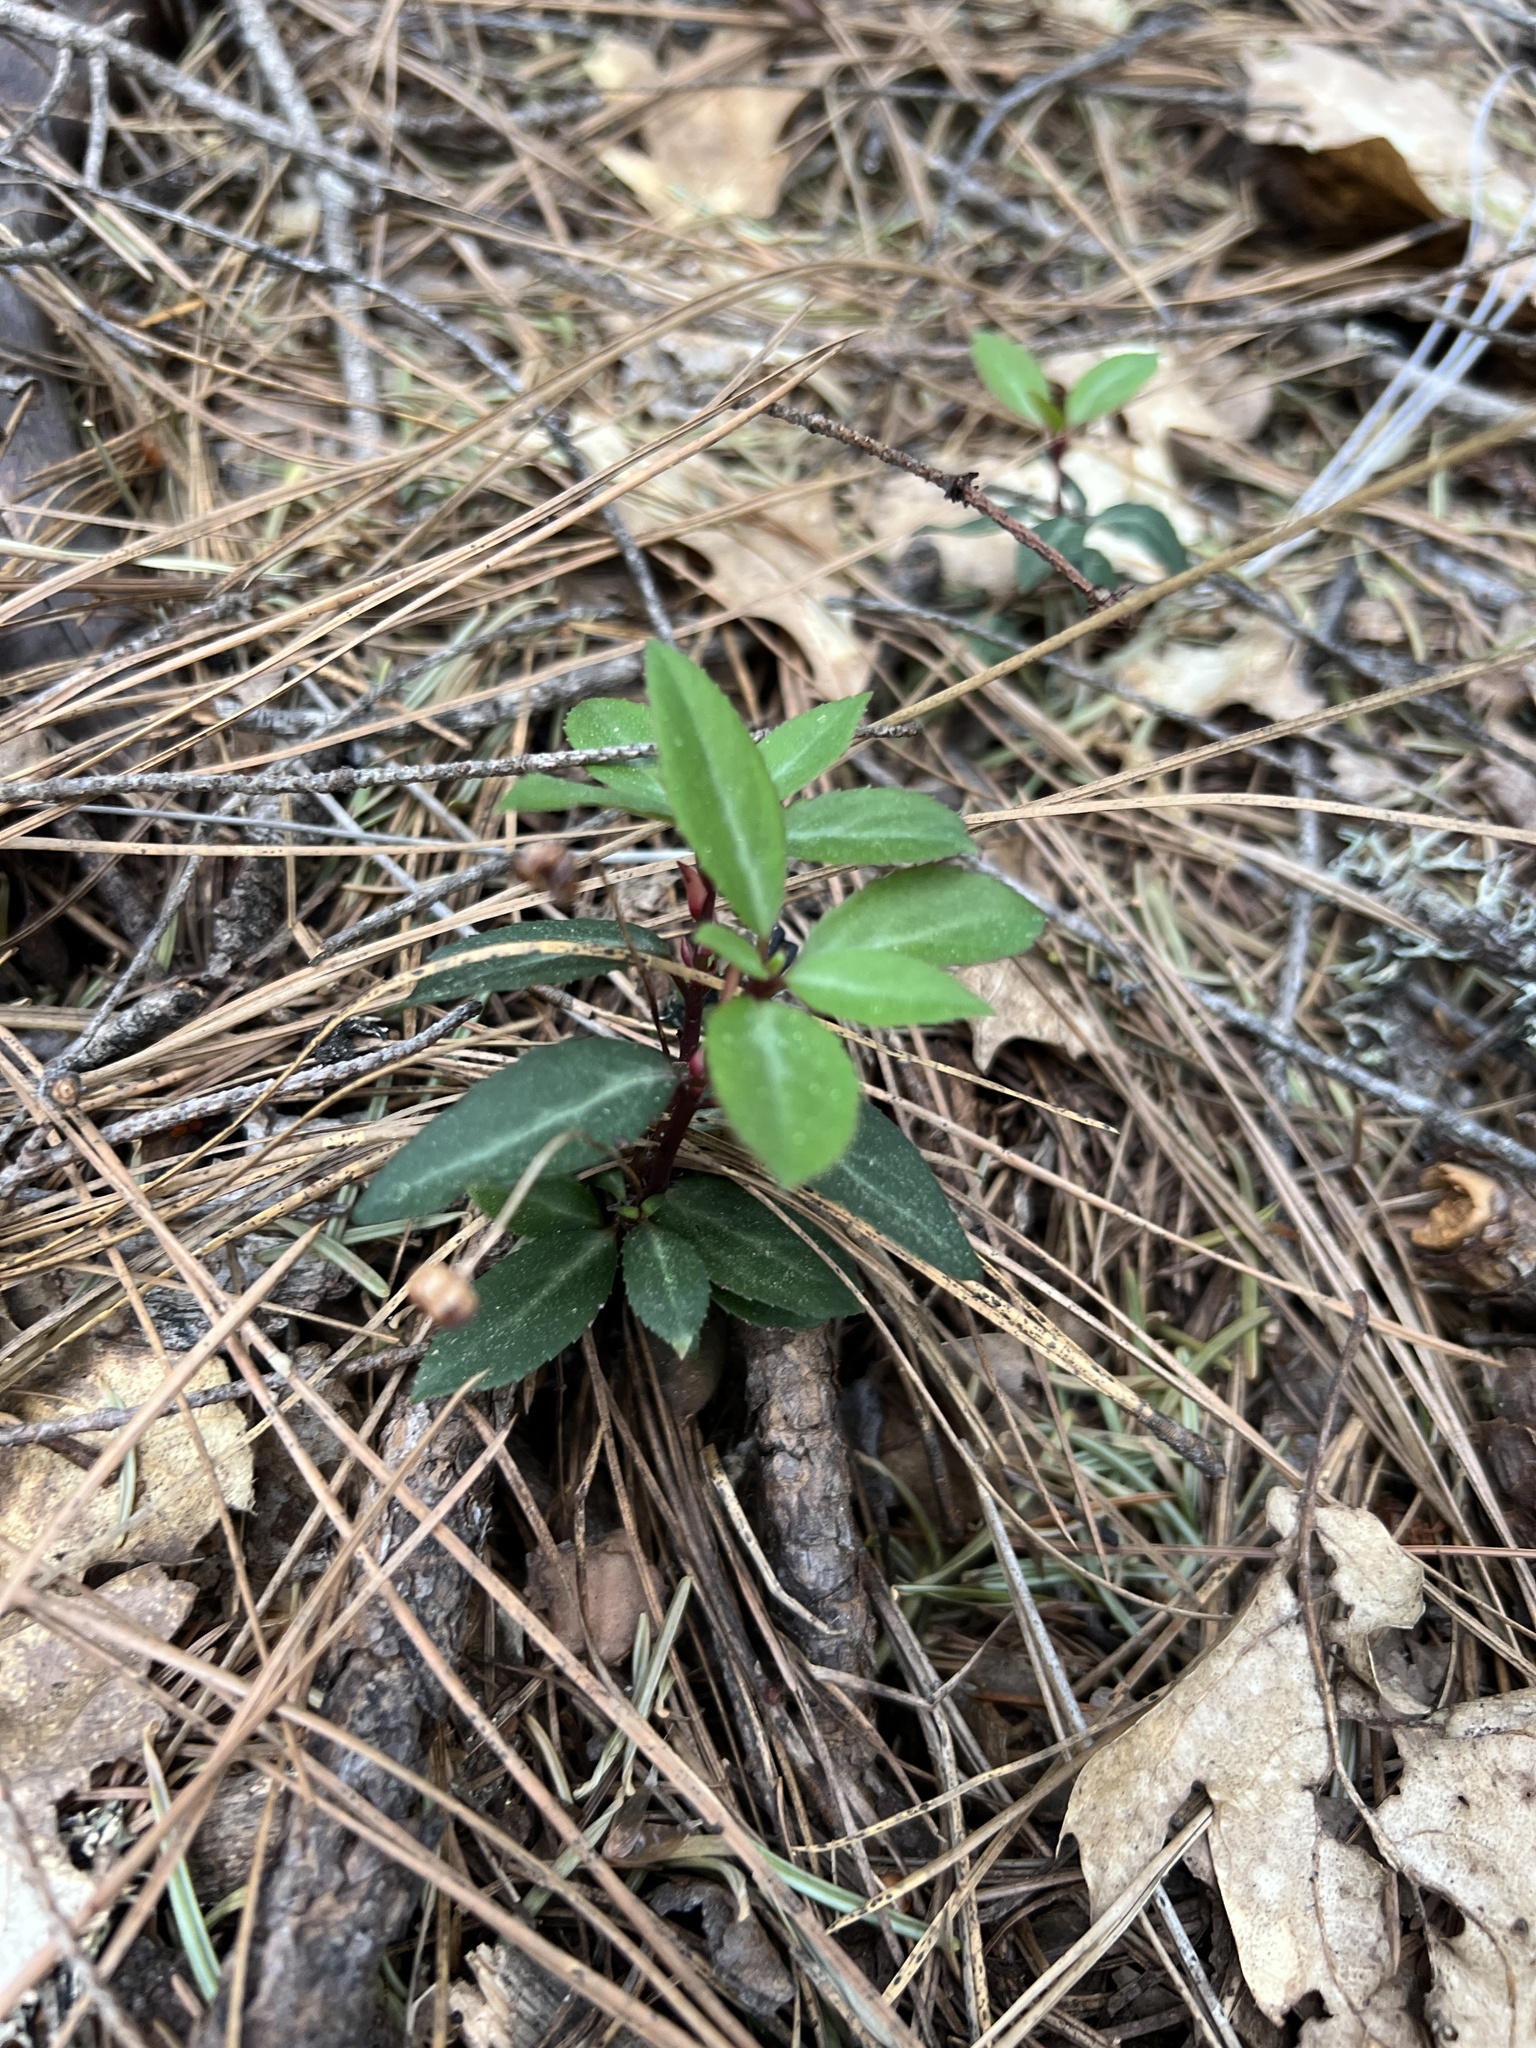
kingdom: Plantae
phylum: Tracheophyta
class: Magnoliopsida
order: Ericales
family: Ericaceae
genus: Chimaphila
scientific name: Chimaphila menziesii
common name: Menzies' pipsissewa
